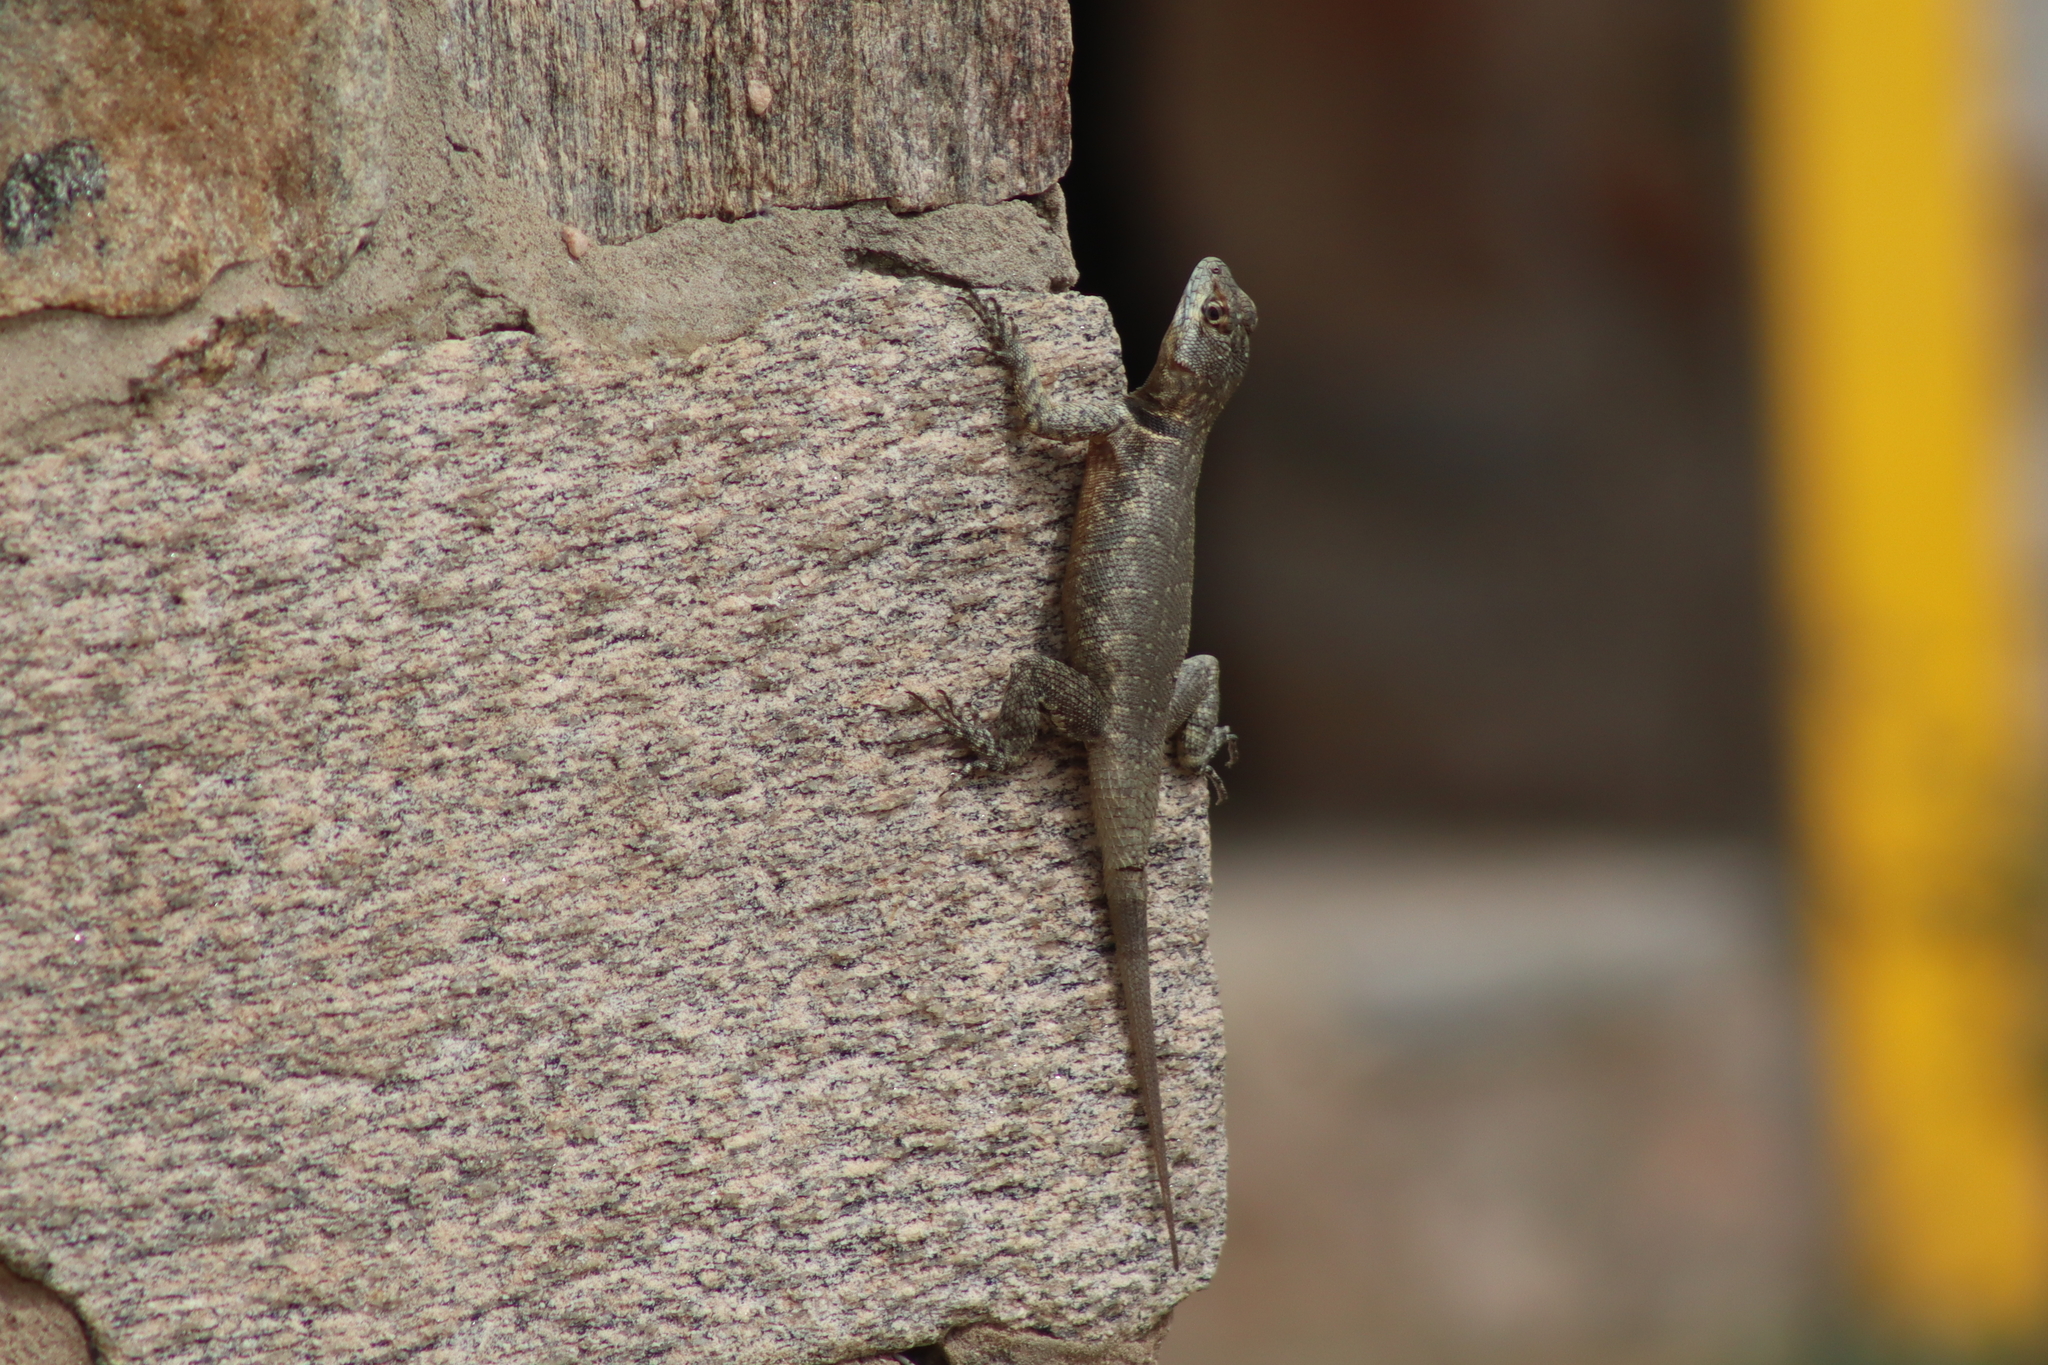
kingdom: Animalia
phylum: Chordata
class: Squamata
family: Tropiduridae
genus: Tropidurus
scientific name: Tropidurus hispidus
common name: Peters' lava lizard
